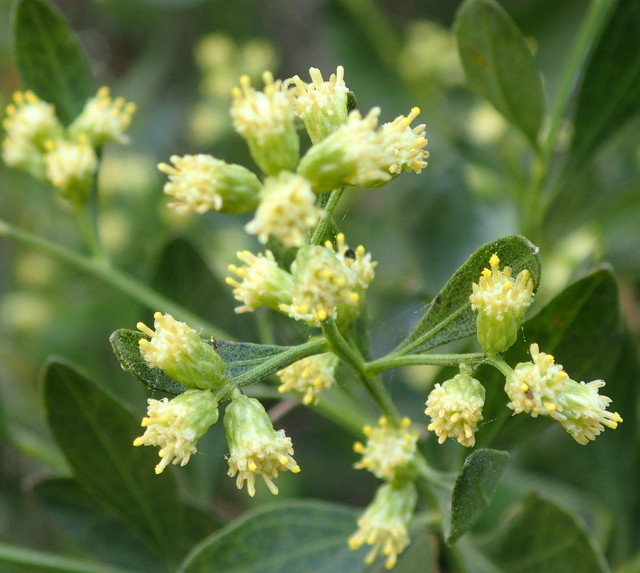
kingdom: Plantae
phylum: Tracheophyta
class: Magnoliopsida
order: Asterales
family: Asteraceae
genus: Baccharis
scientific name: Baccharis halimifolia
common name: Eastern baccharis
